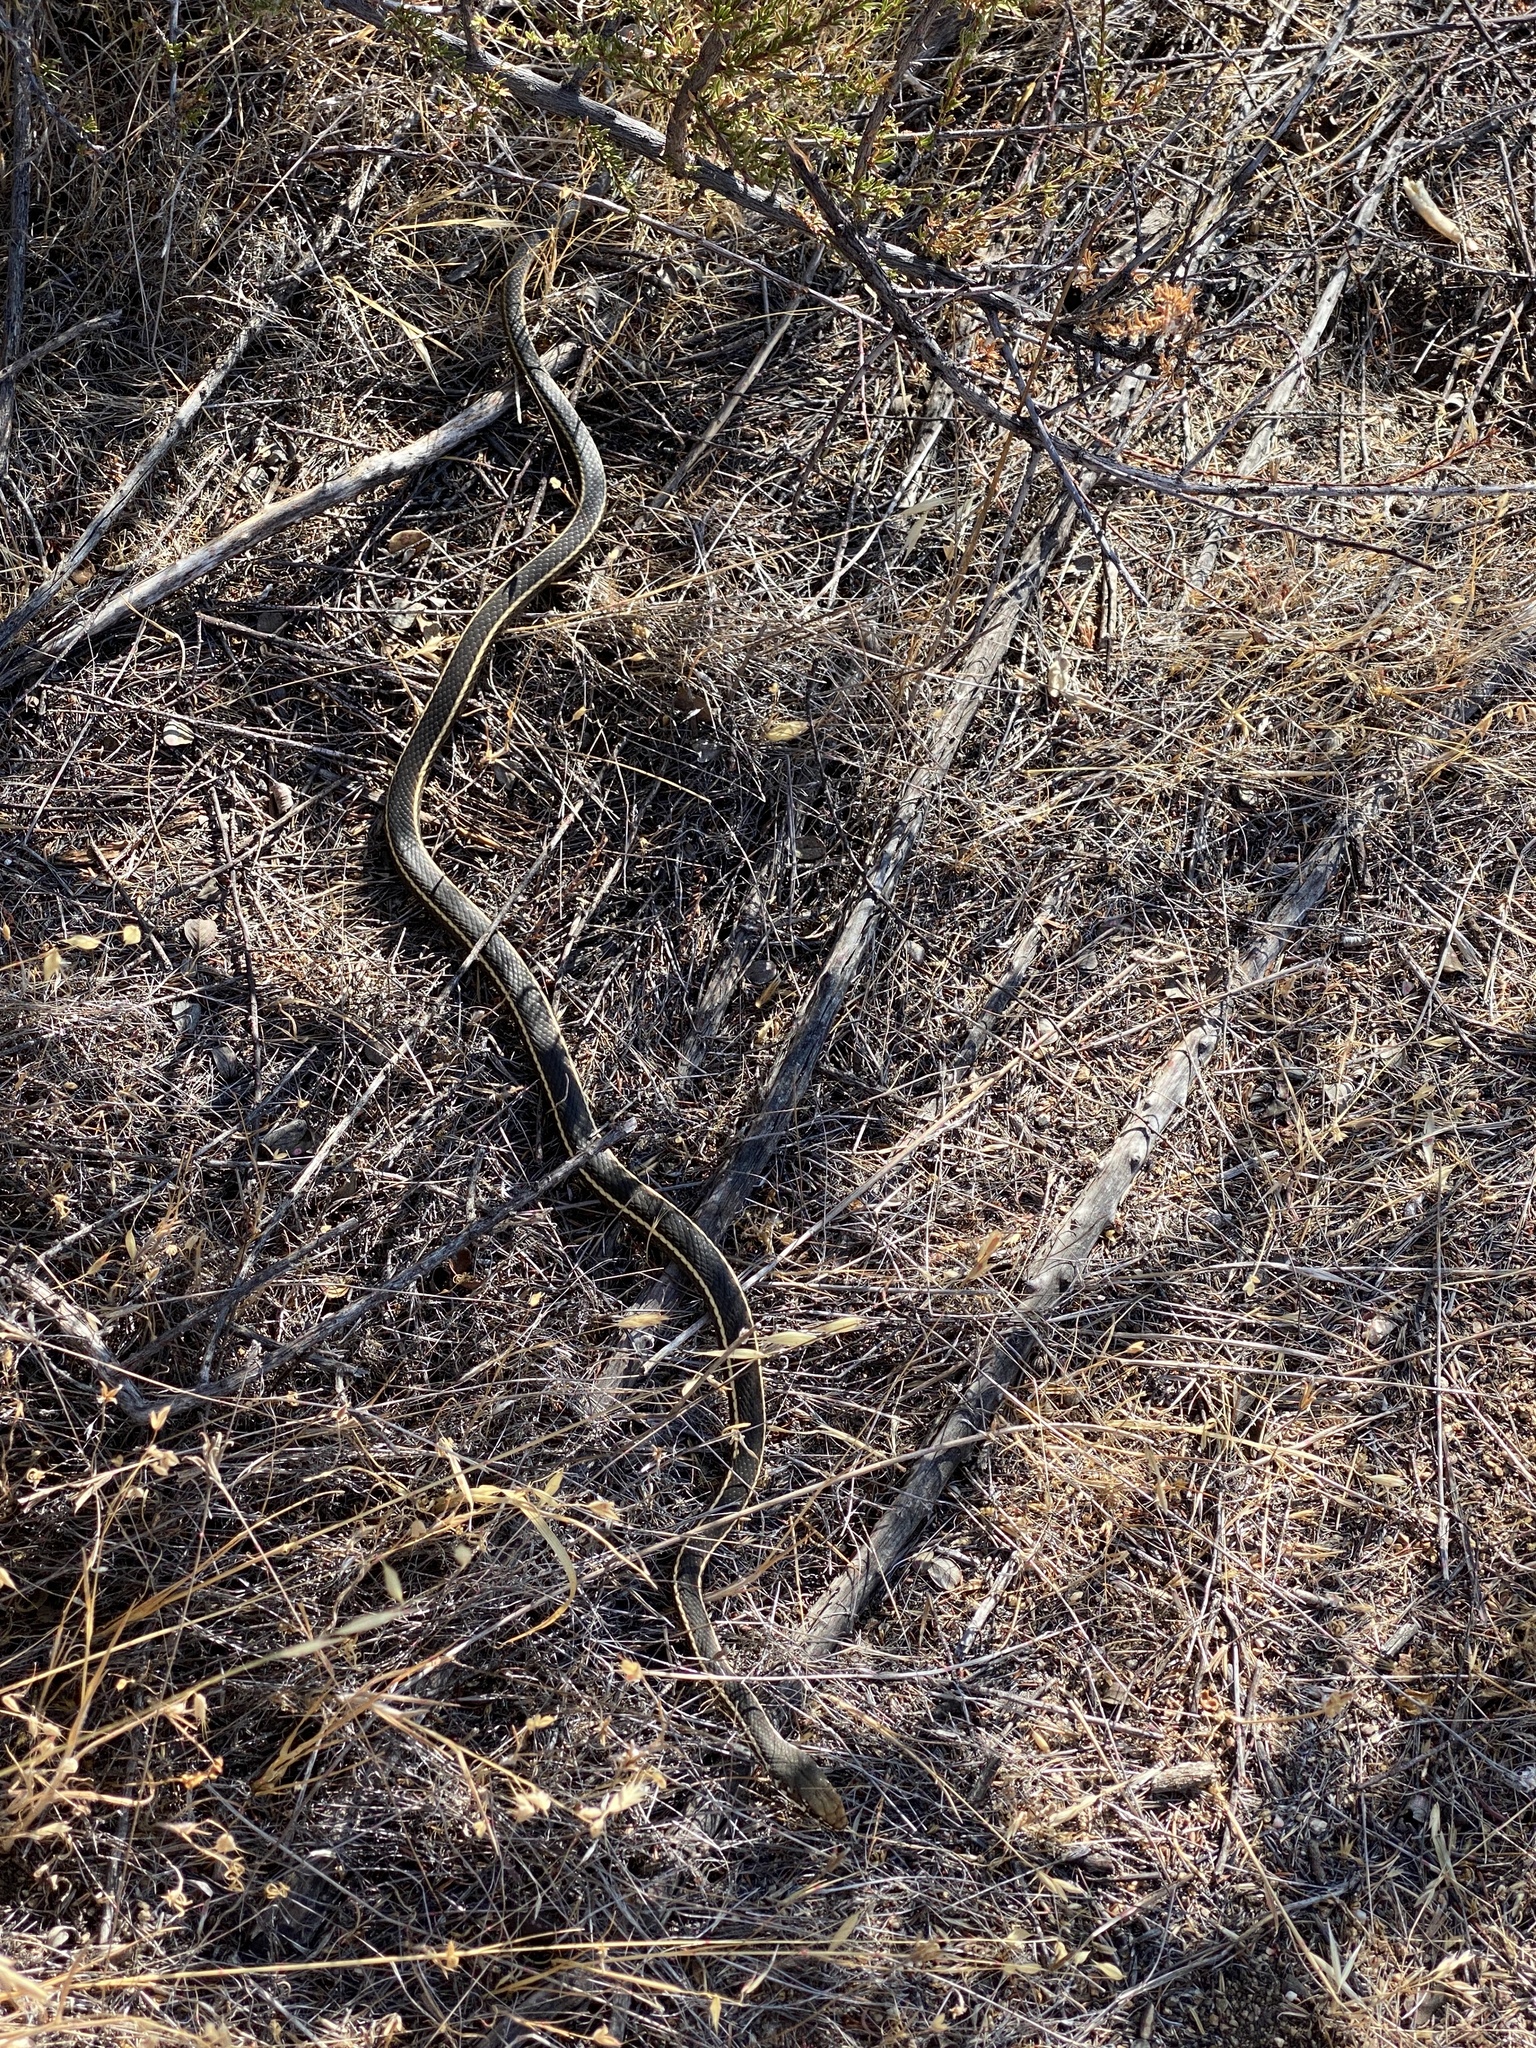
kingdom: Animalia
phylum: Chordata
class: Squamata
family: Colubridae
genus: Masticophis
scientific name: Masticophis lateralis
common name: Striped racer
